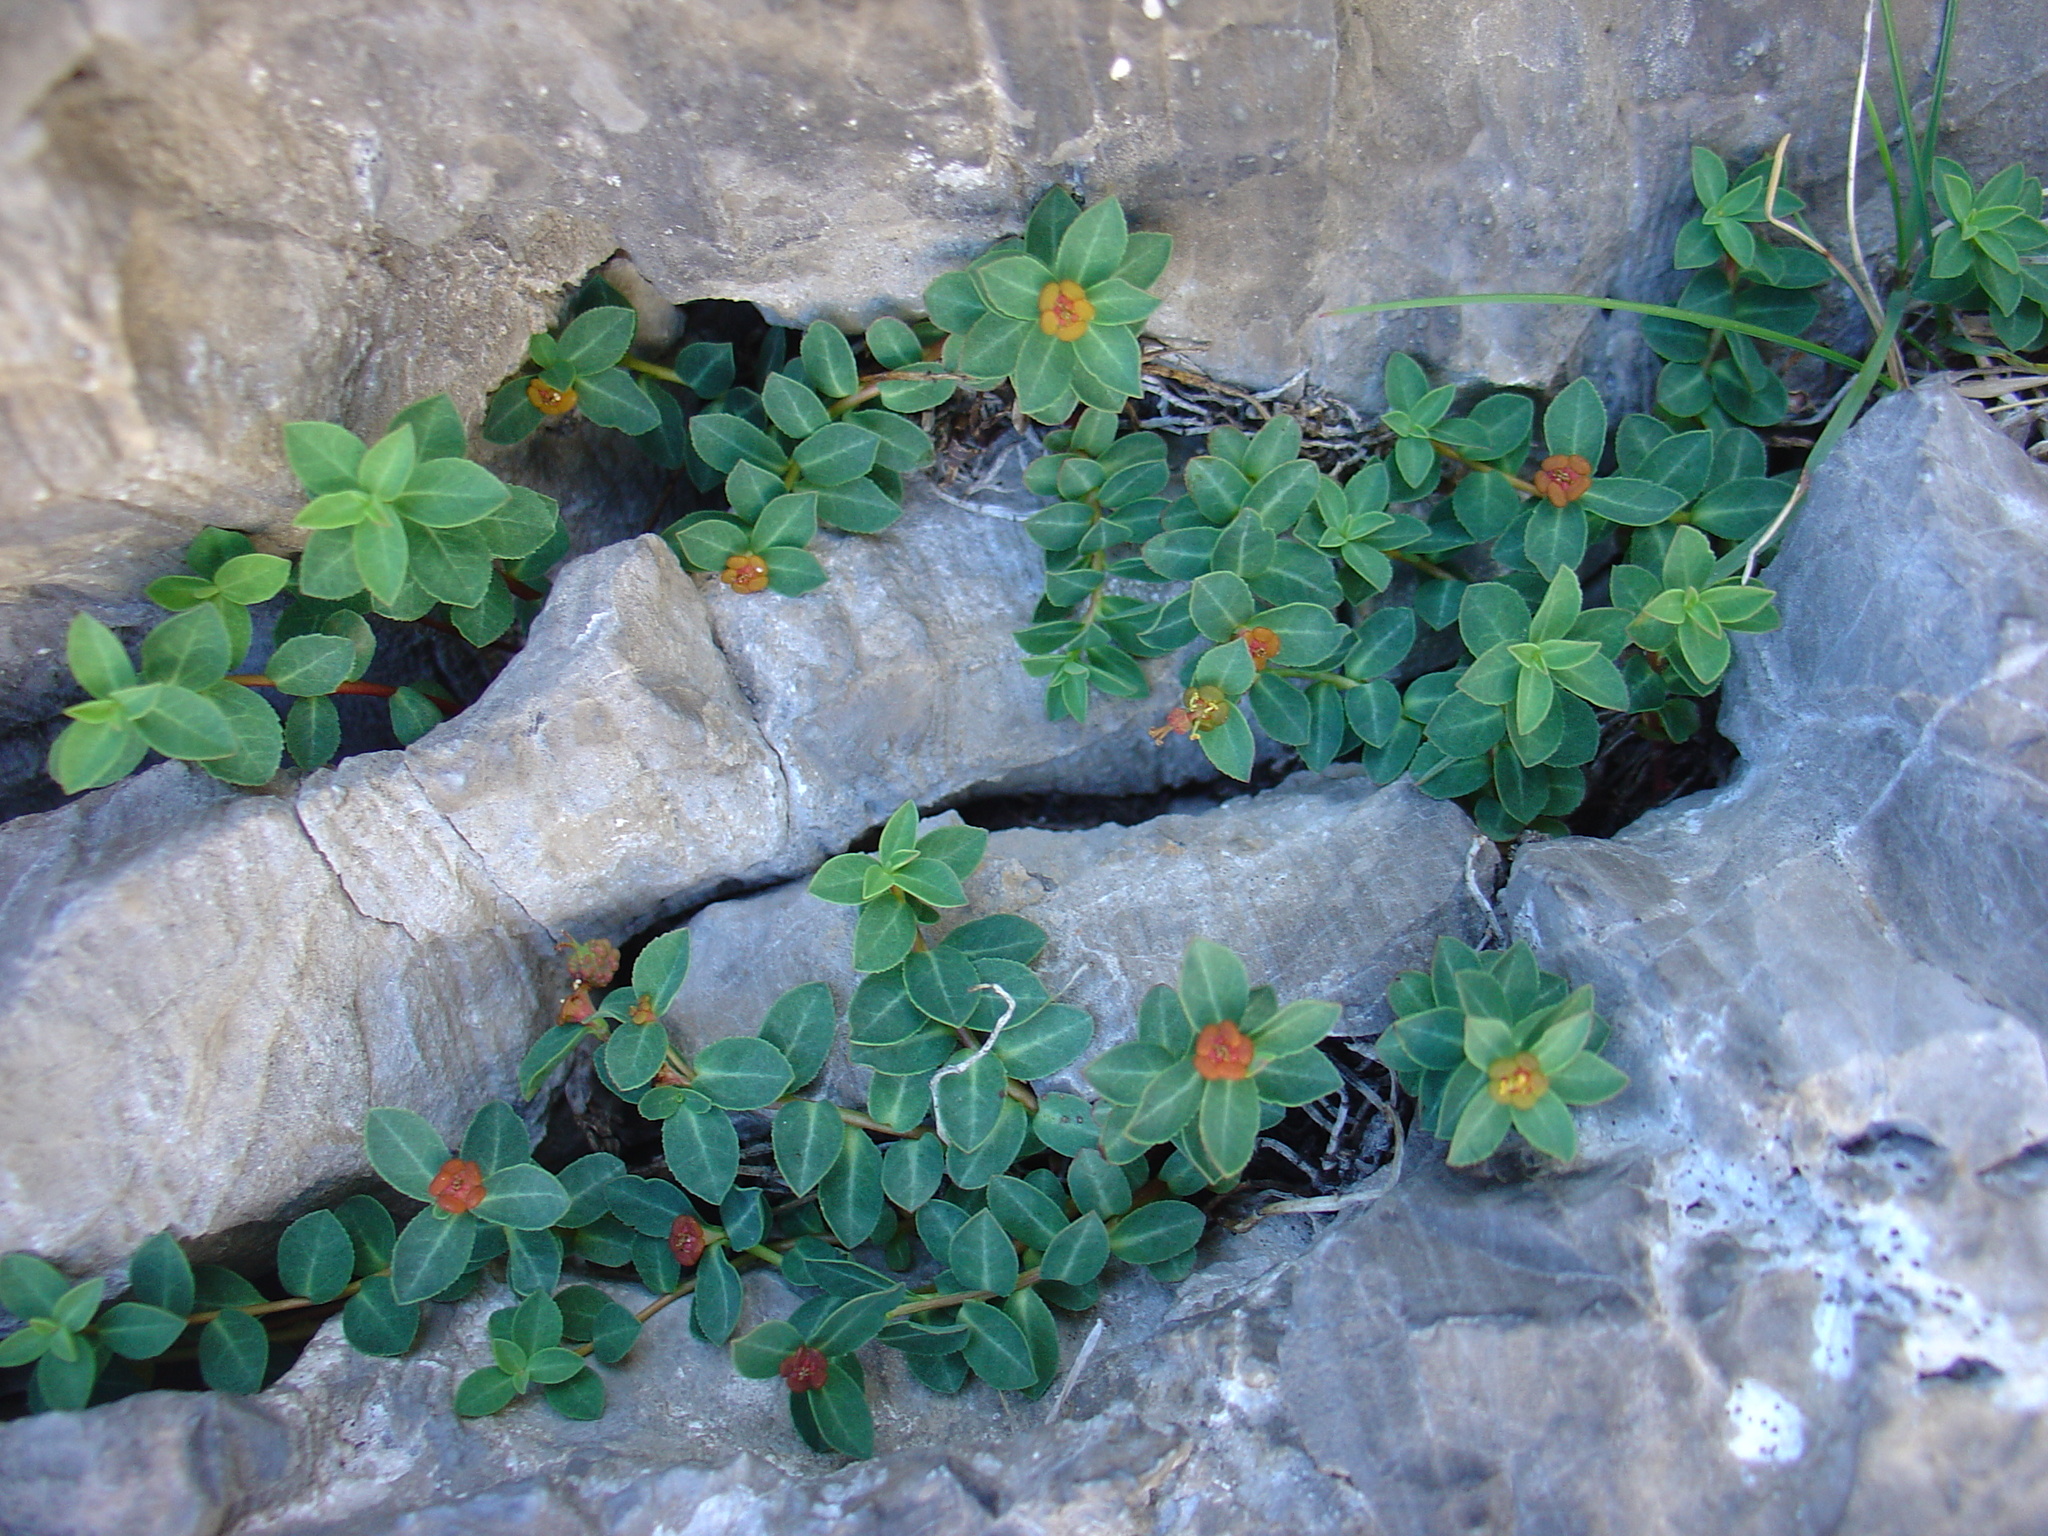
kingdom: Plantae
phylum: Tracheophyta
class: Magnoliopsida
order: Malpighiales
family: Euphorbiaceae
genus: Euphorbia
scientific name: Euphorbia pyrenaica
